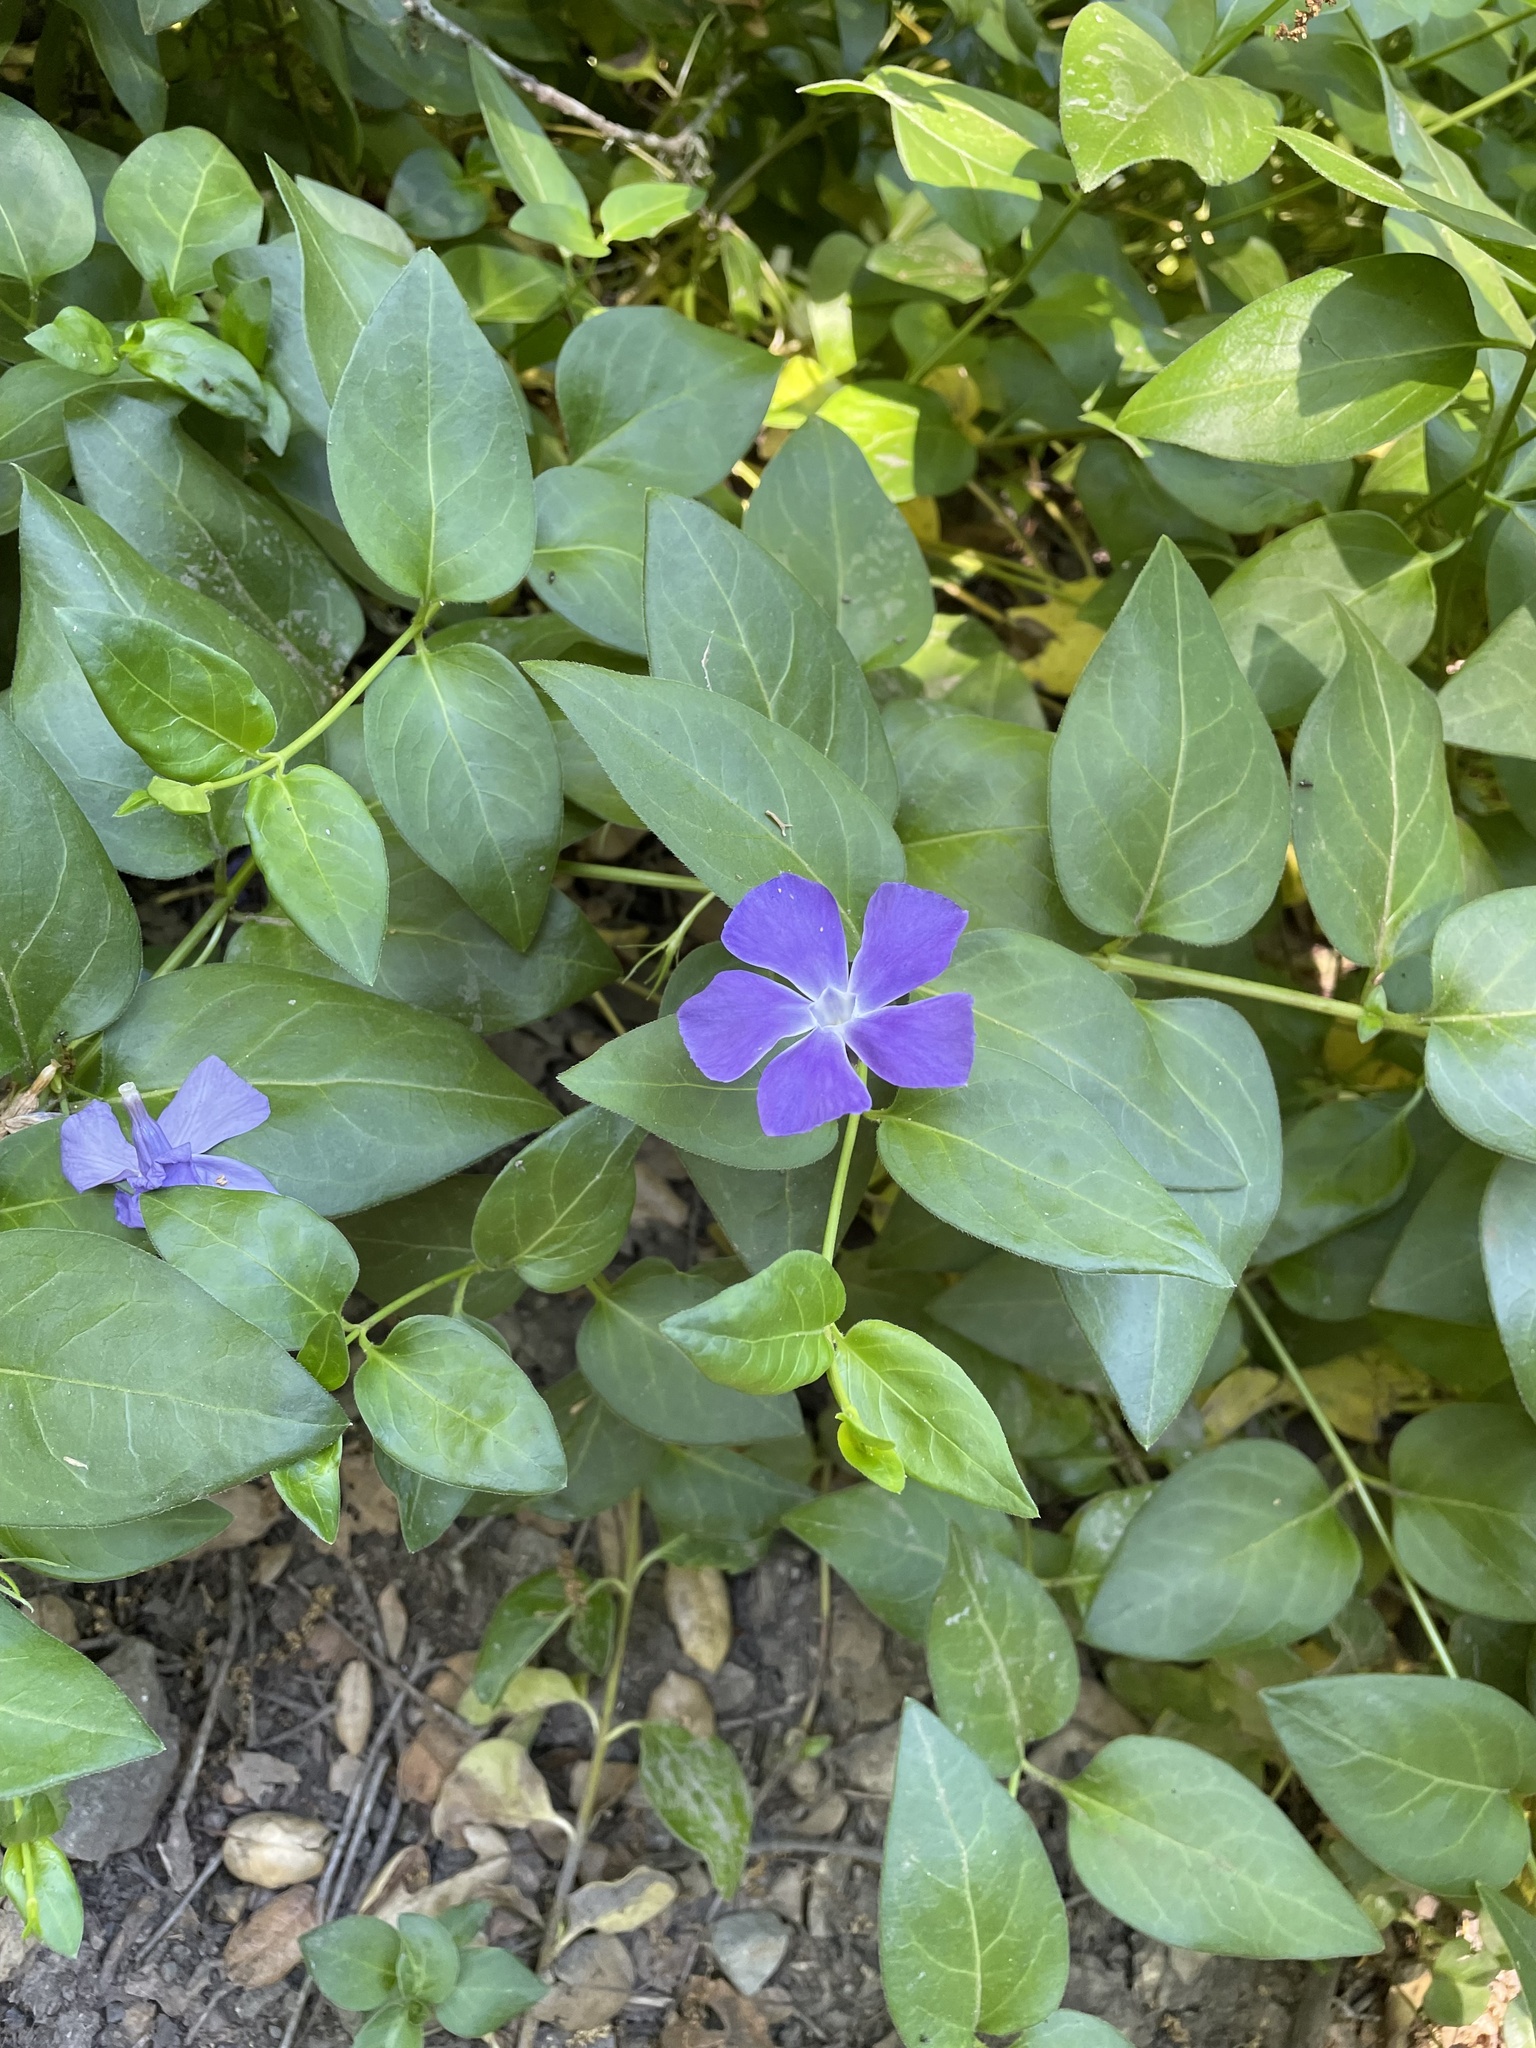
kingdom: Plantae
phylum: Tracheophyta
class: Magnoliopsida
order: Gentianales
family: Apocynaceae
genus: Vinca
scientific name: Vinca major
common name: Greater periwinkle
